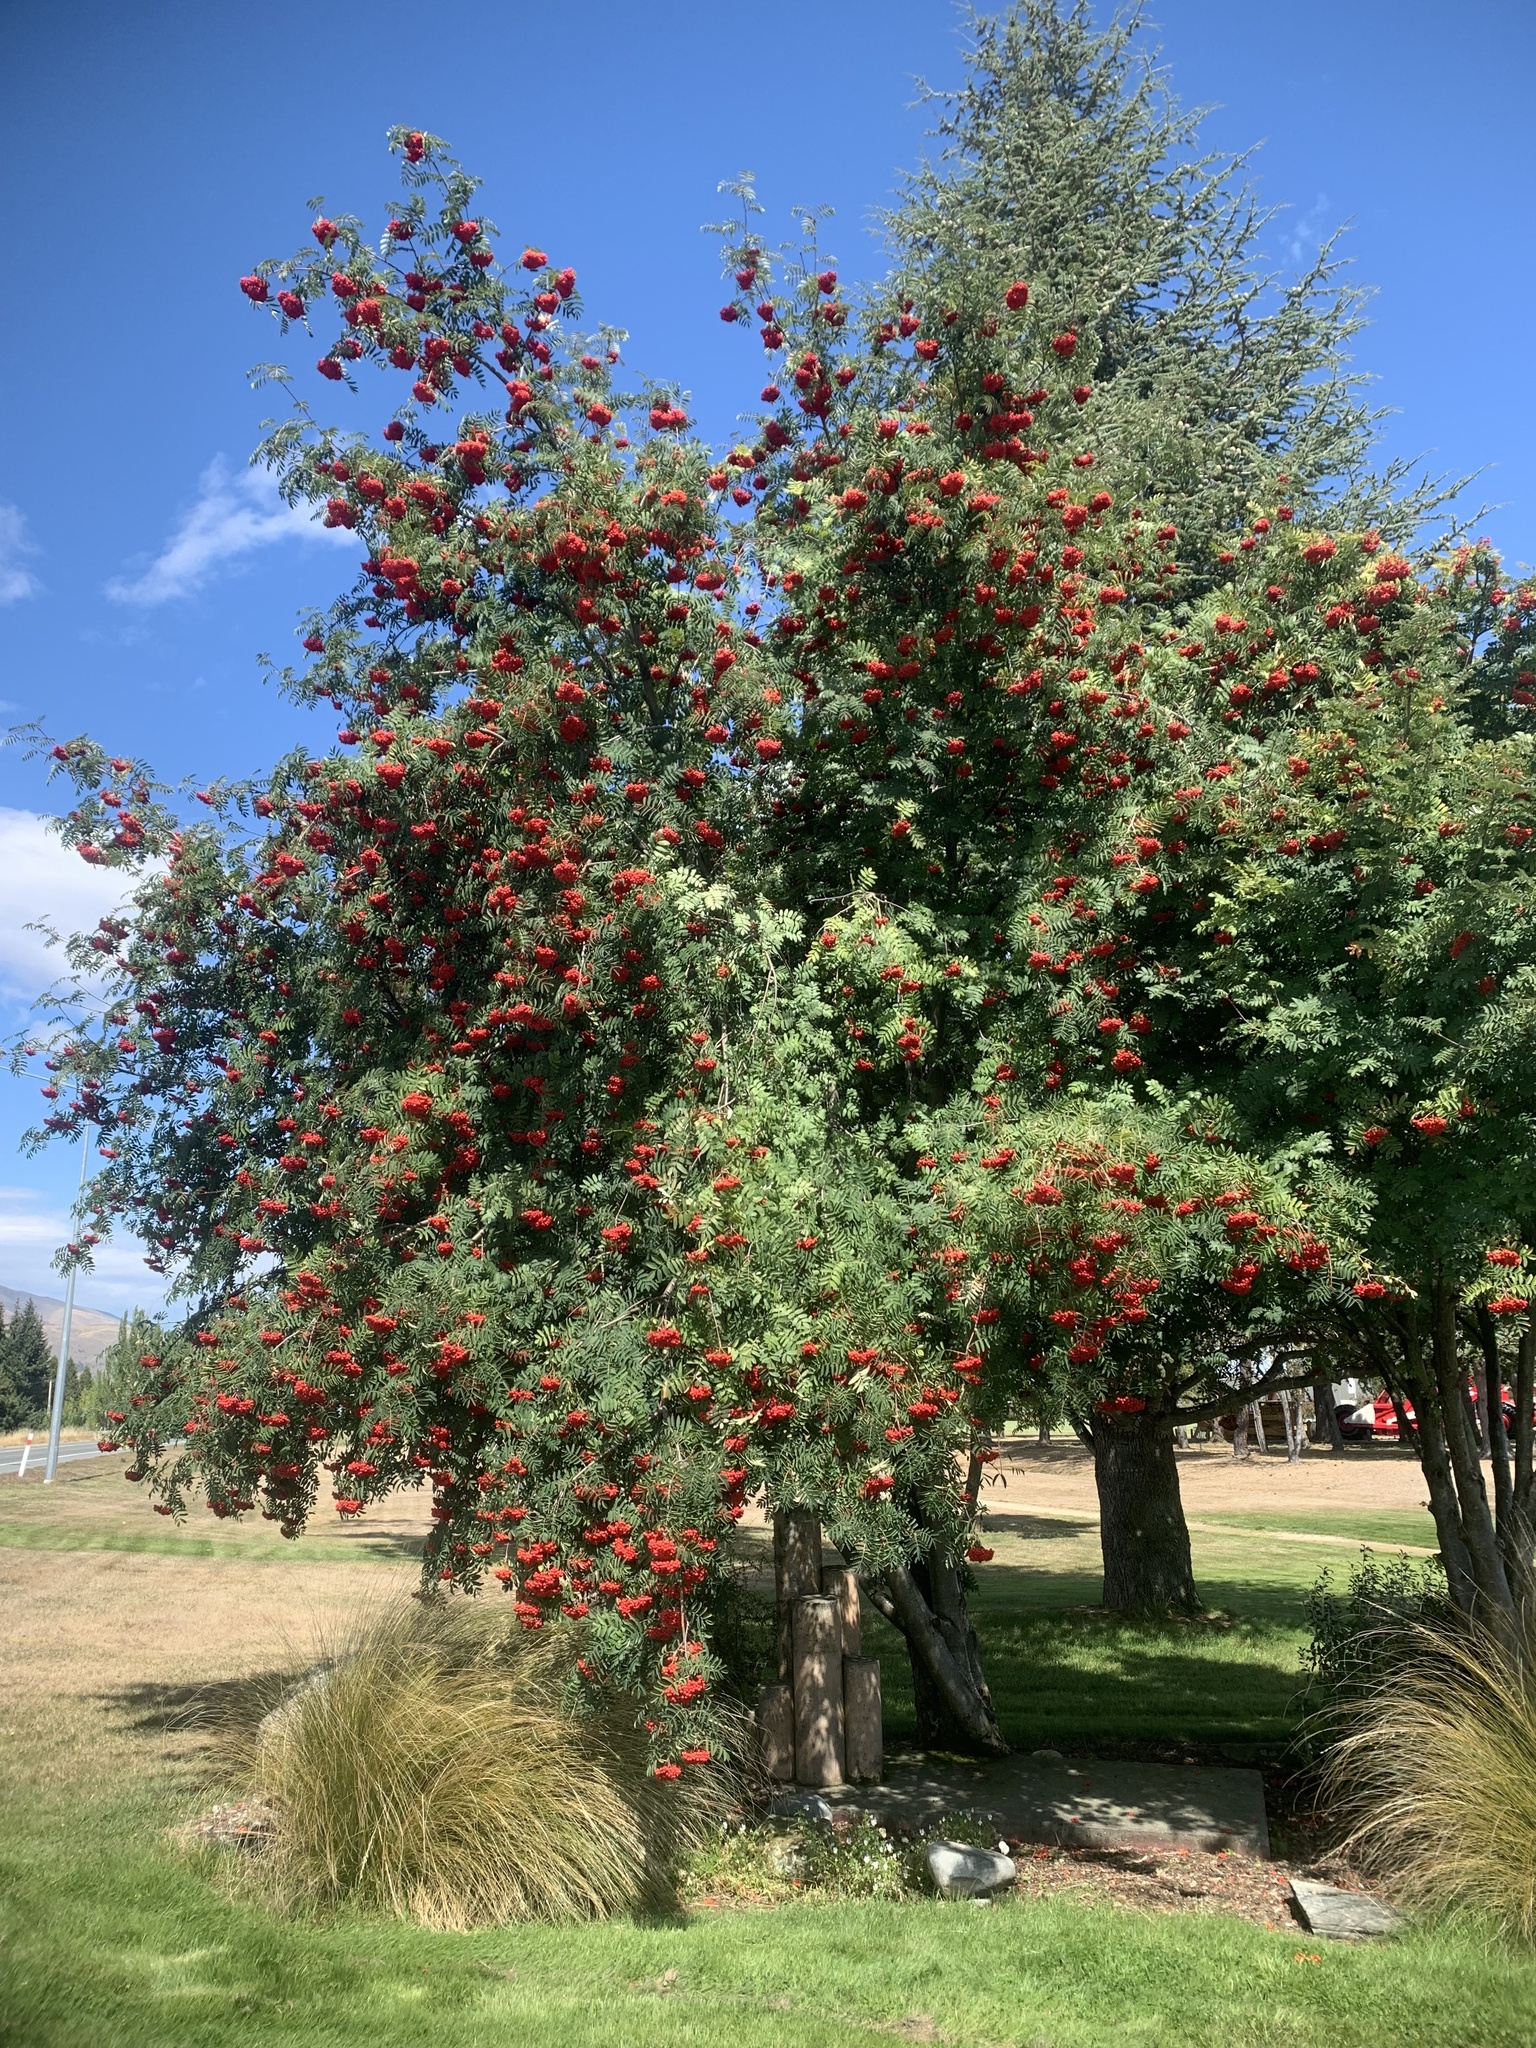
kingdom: Plantae
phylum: Tracheophyta
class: Magnoliopsida
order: Rosales
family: Rosaceae
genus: Sorbus
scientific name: Sorbus aucuparia
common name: Rowan
